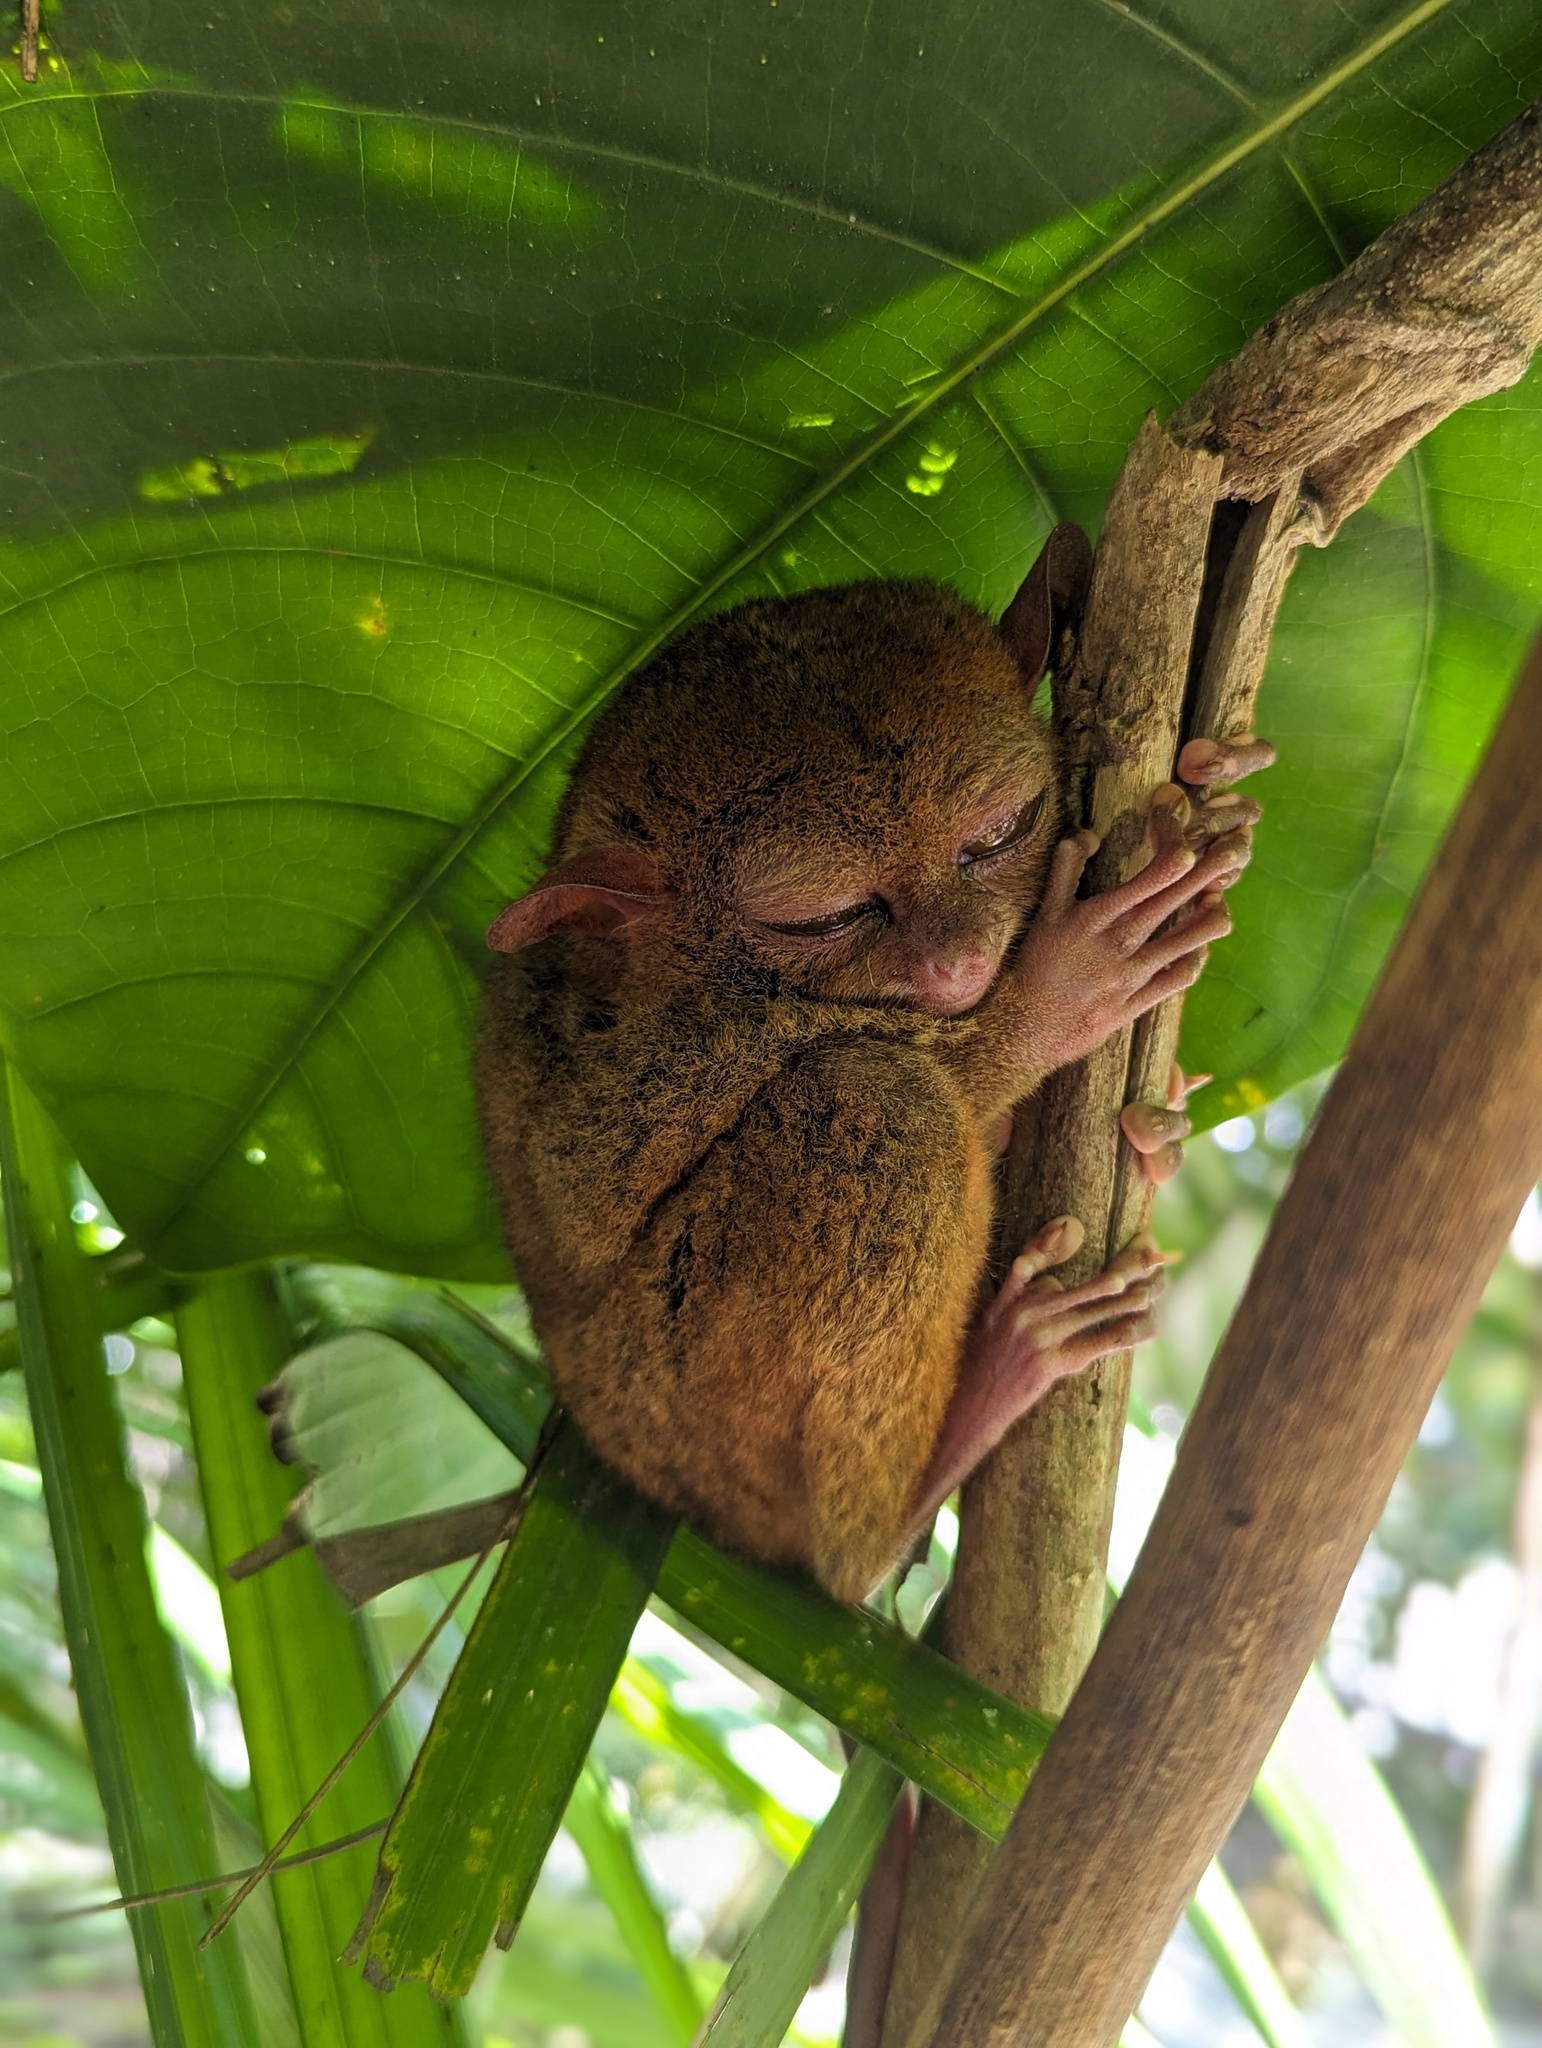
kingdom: Animalia
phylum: Chordata
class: Mammalia
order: Primates
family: Tarsiidae
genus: Carlito
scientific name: Carlito syrichta
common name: Philippine tarsier
